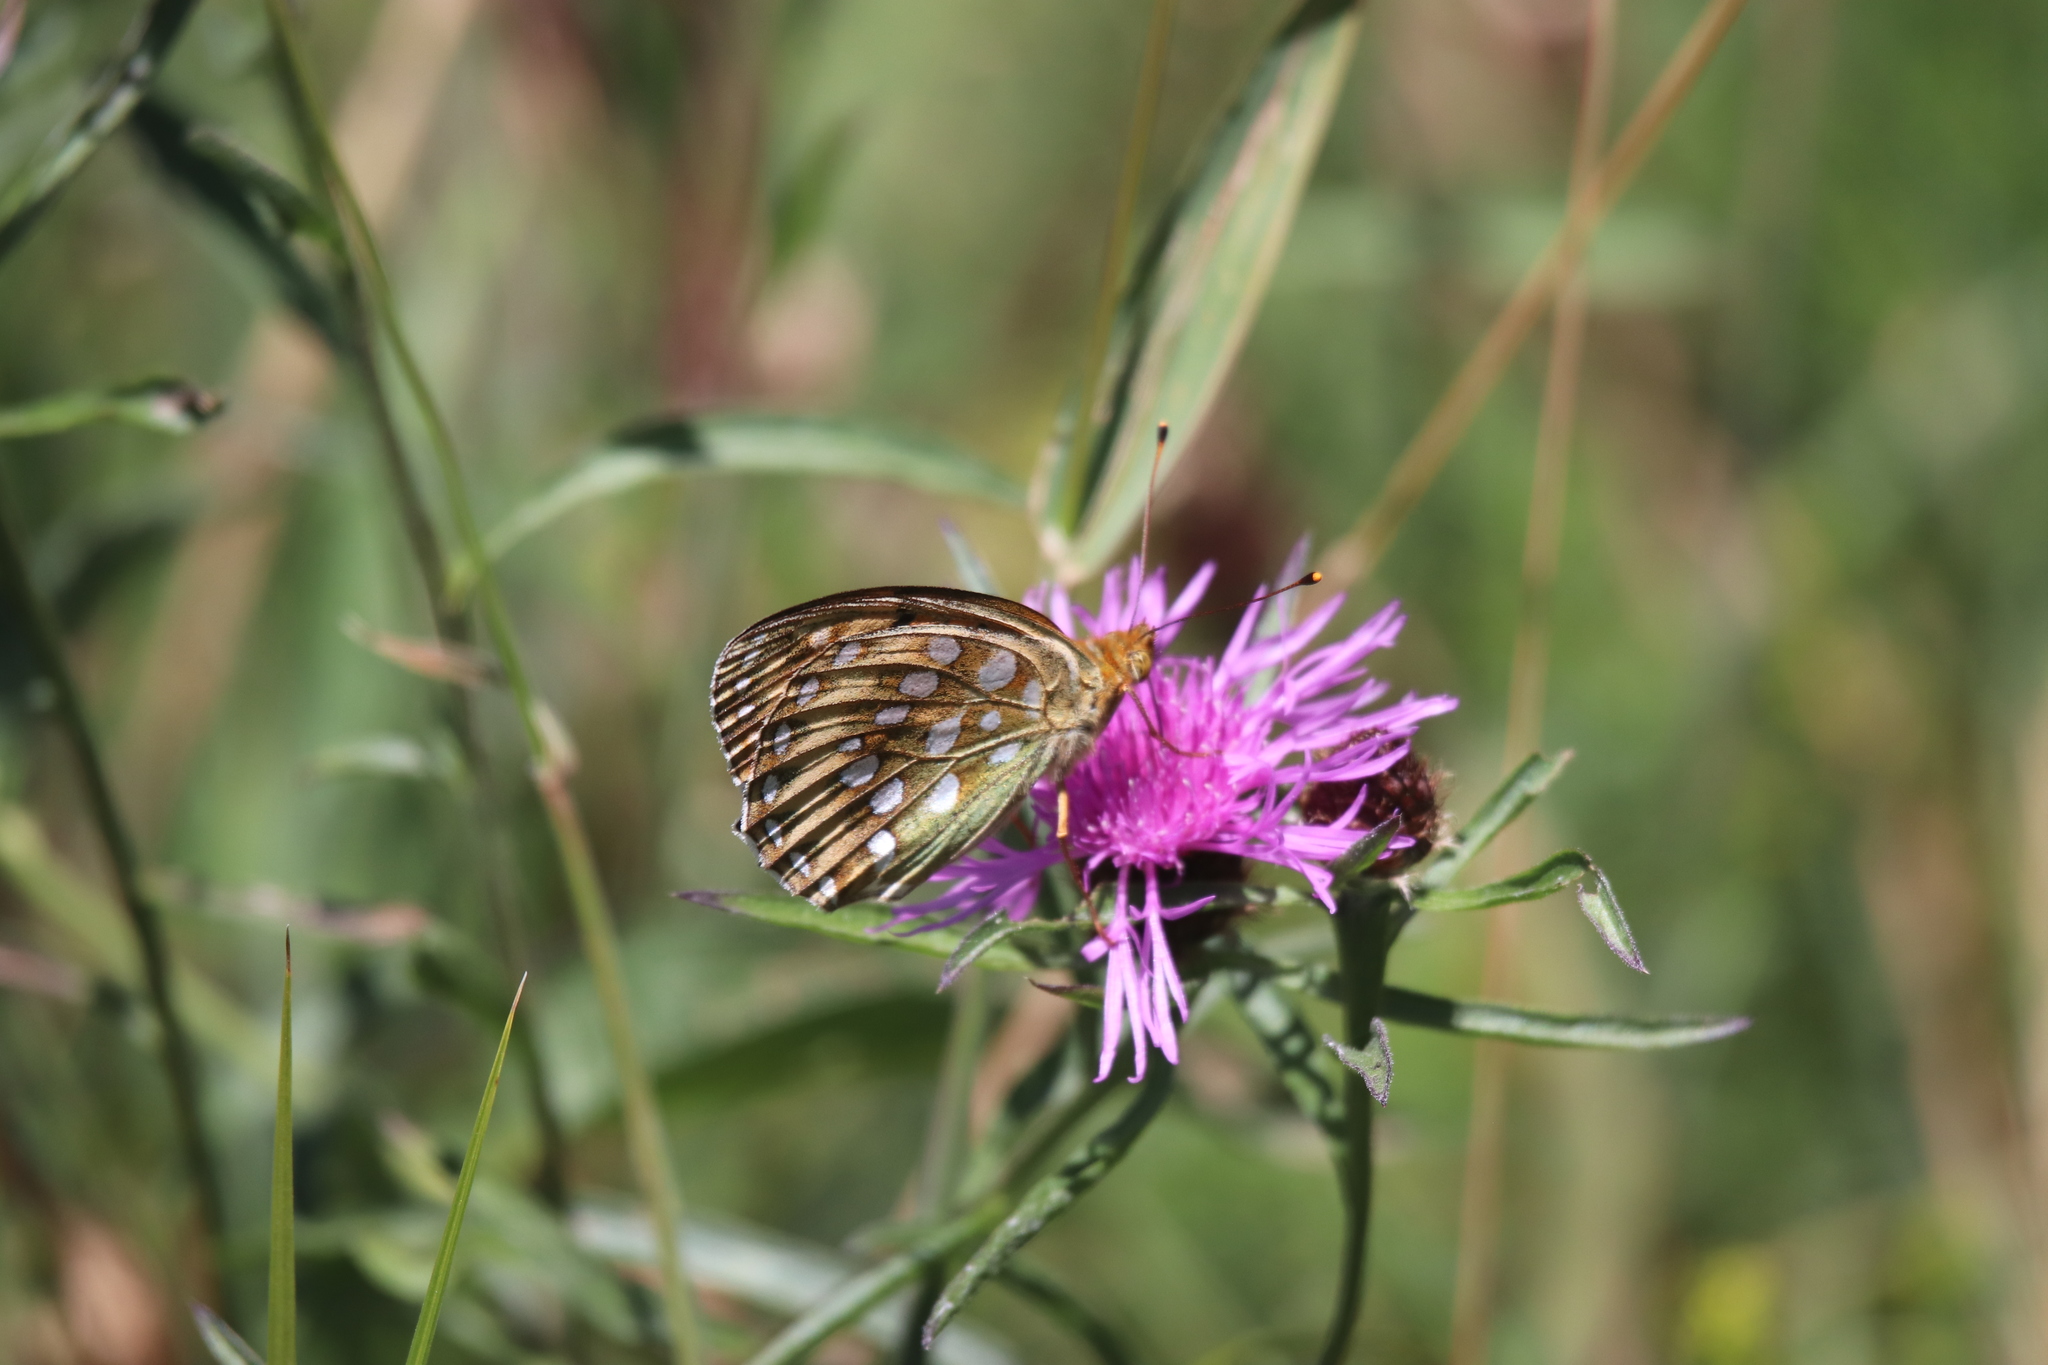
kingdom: Animalia
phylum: Arthropoda
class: Insecta
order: Lepidoptera
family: Nymphalidae
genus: Speyeria
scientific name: Speyeria aglaja
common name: Dark green fritillary
